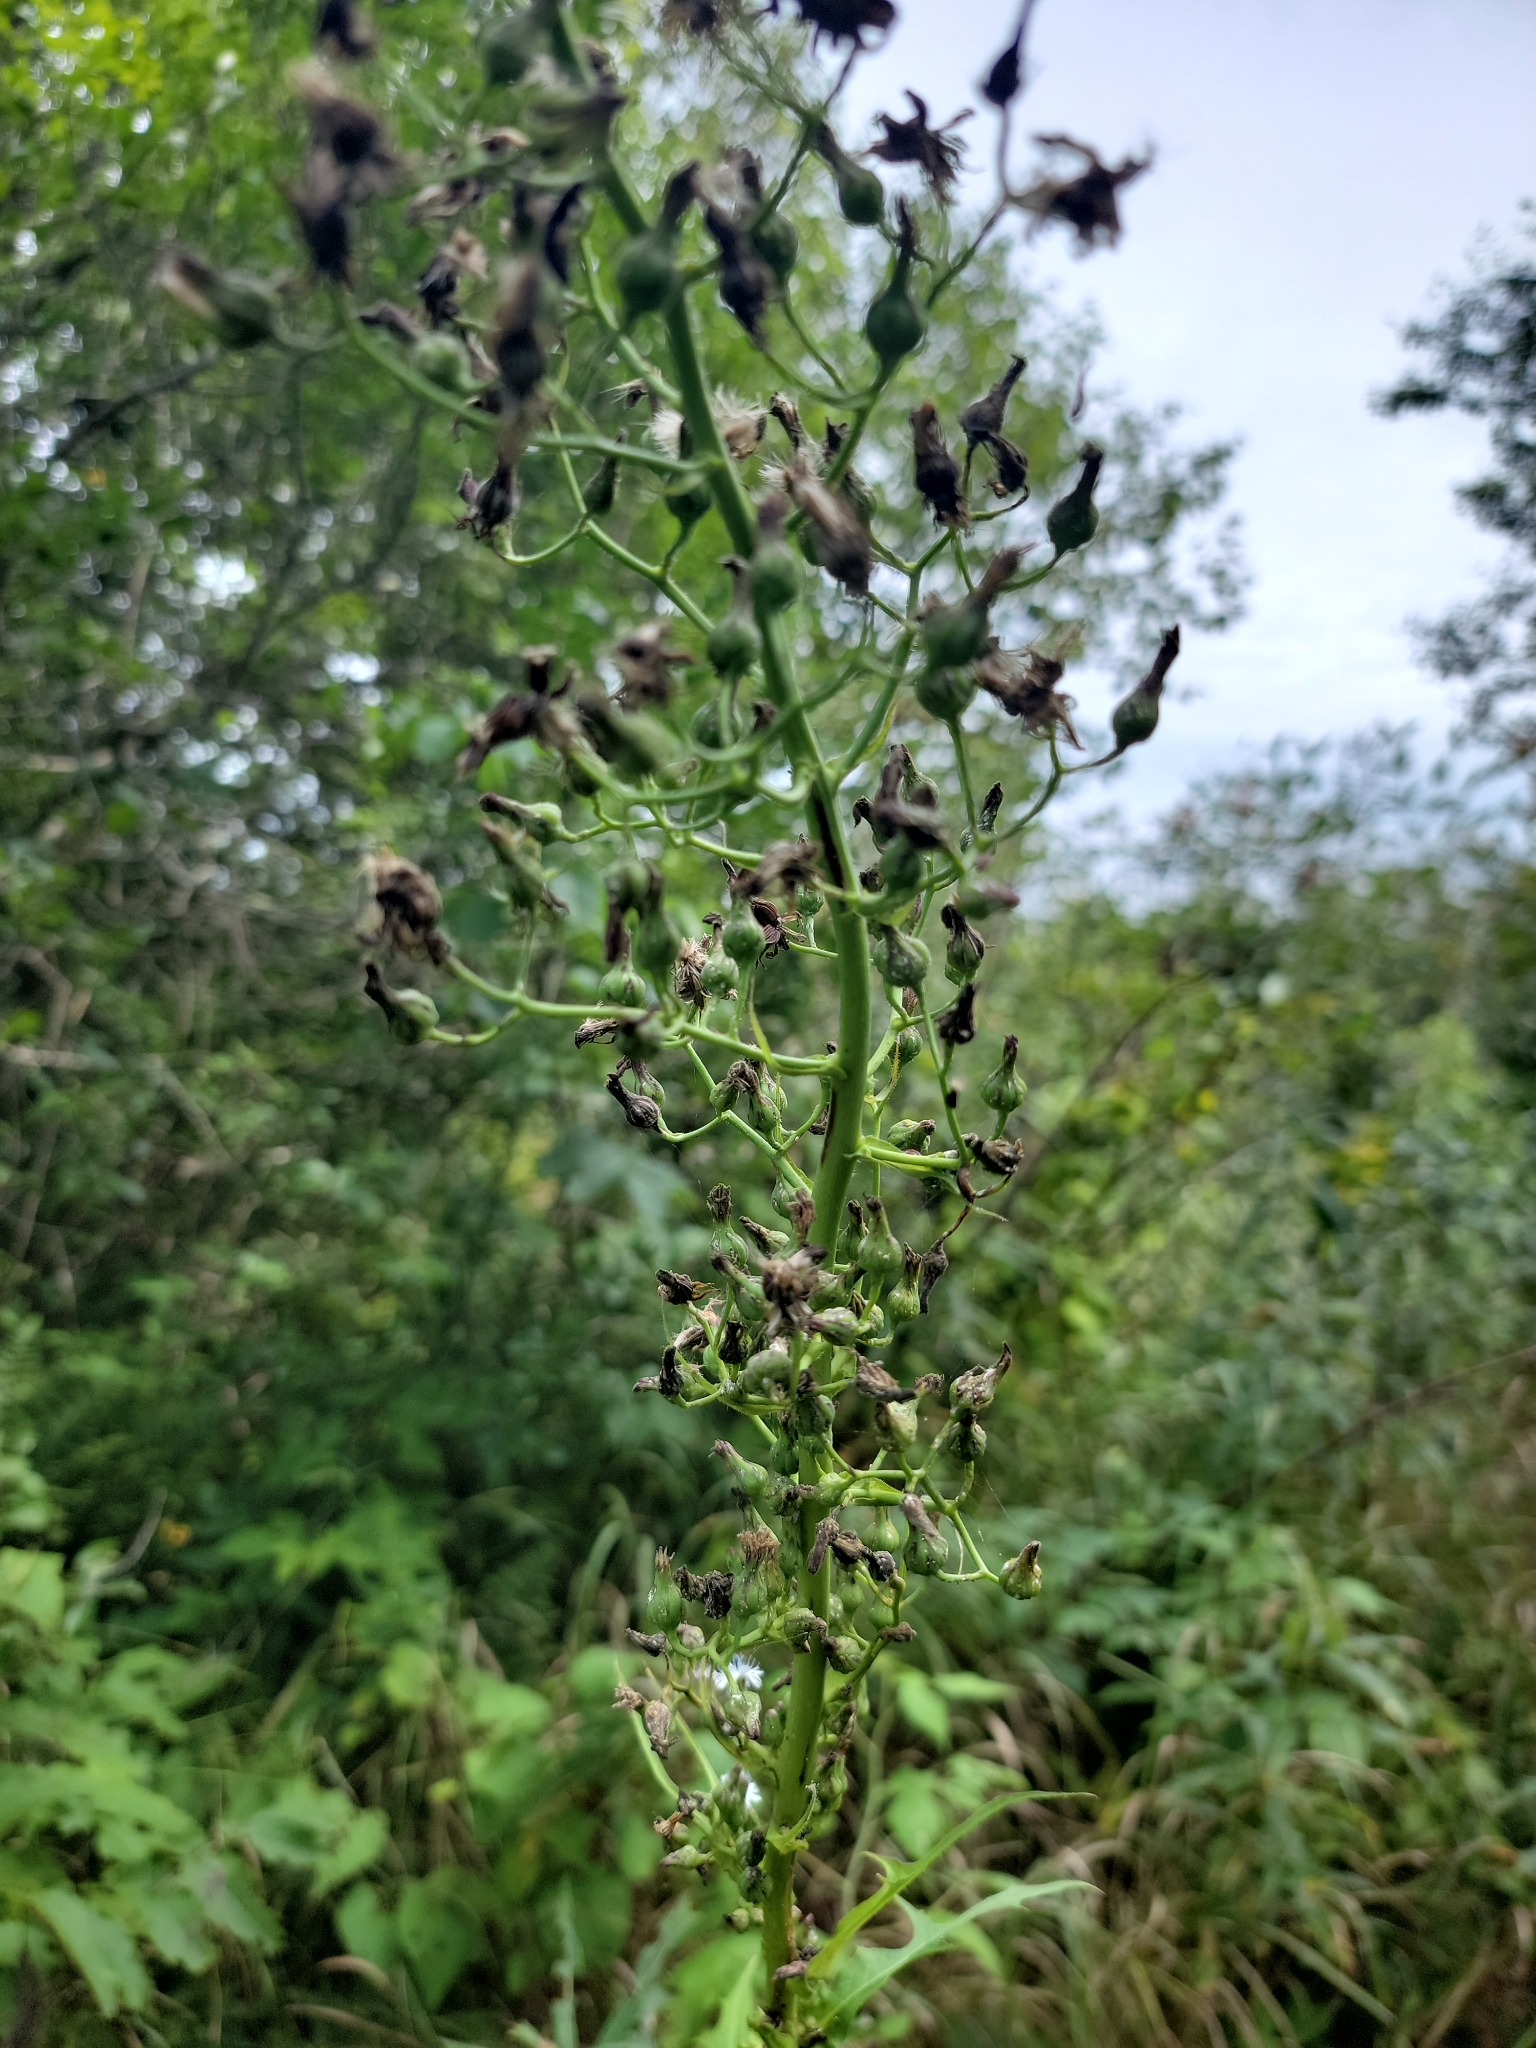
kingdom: Plantae
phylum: Tracheophyta
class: Magnoliopsida
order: Asterales
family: Asteraceae
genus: Lactuca
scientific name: Lactuca biennis
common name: Blue wood lettuce
